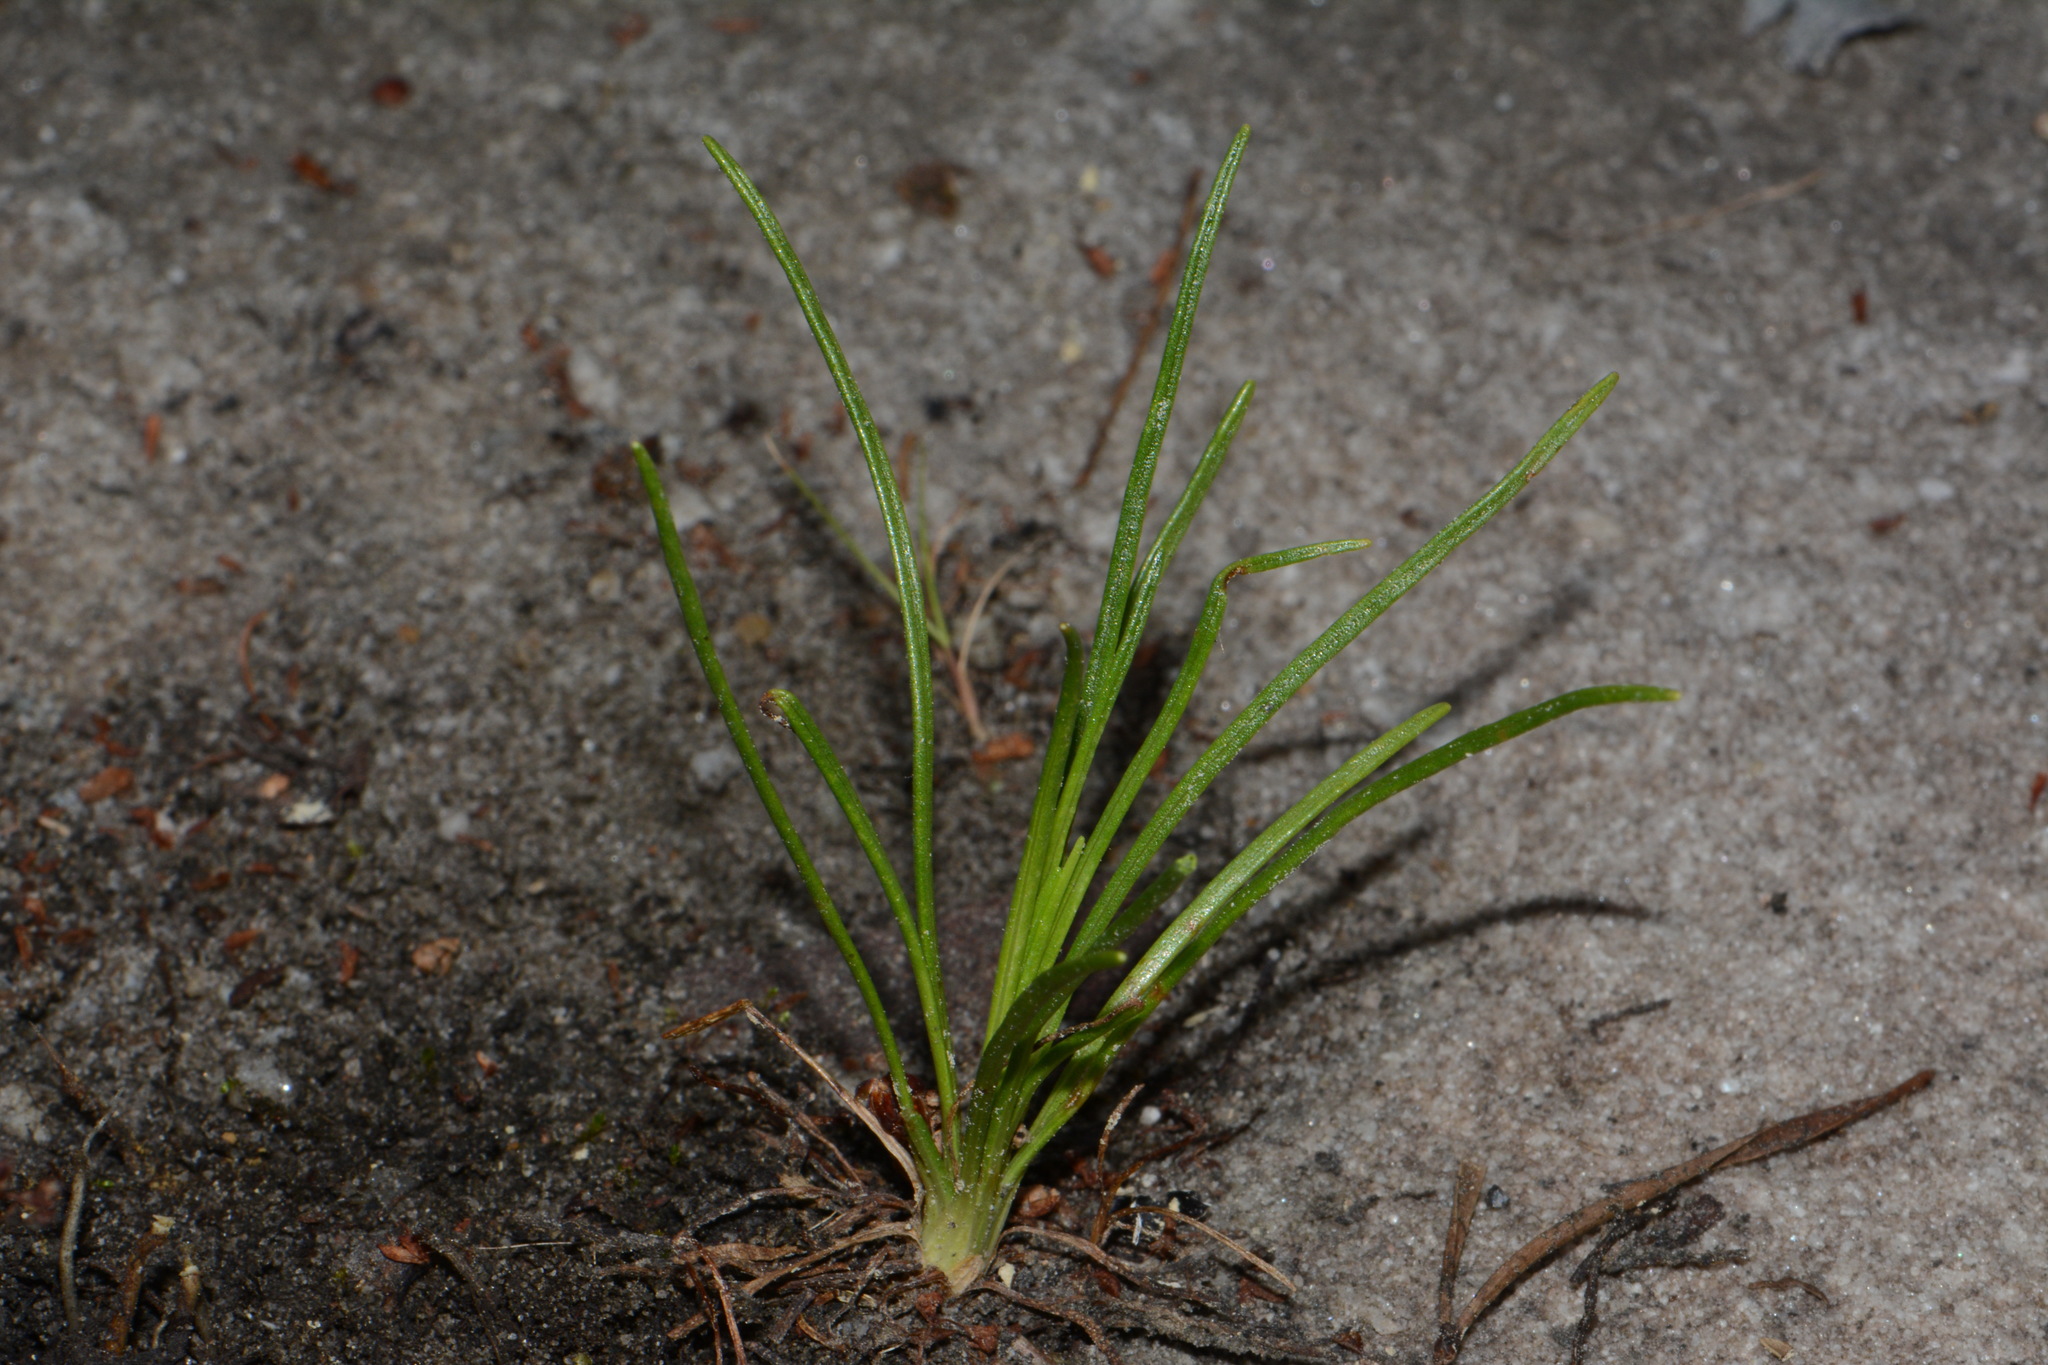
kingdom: Plantae
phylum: Tracheophyta
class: Magnoliopsida
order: Asterales
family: Asteraceae
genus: Bigelowia
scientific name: Bigelowia nuttallii
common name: Nuttall's rayless-goldenrod
